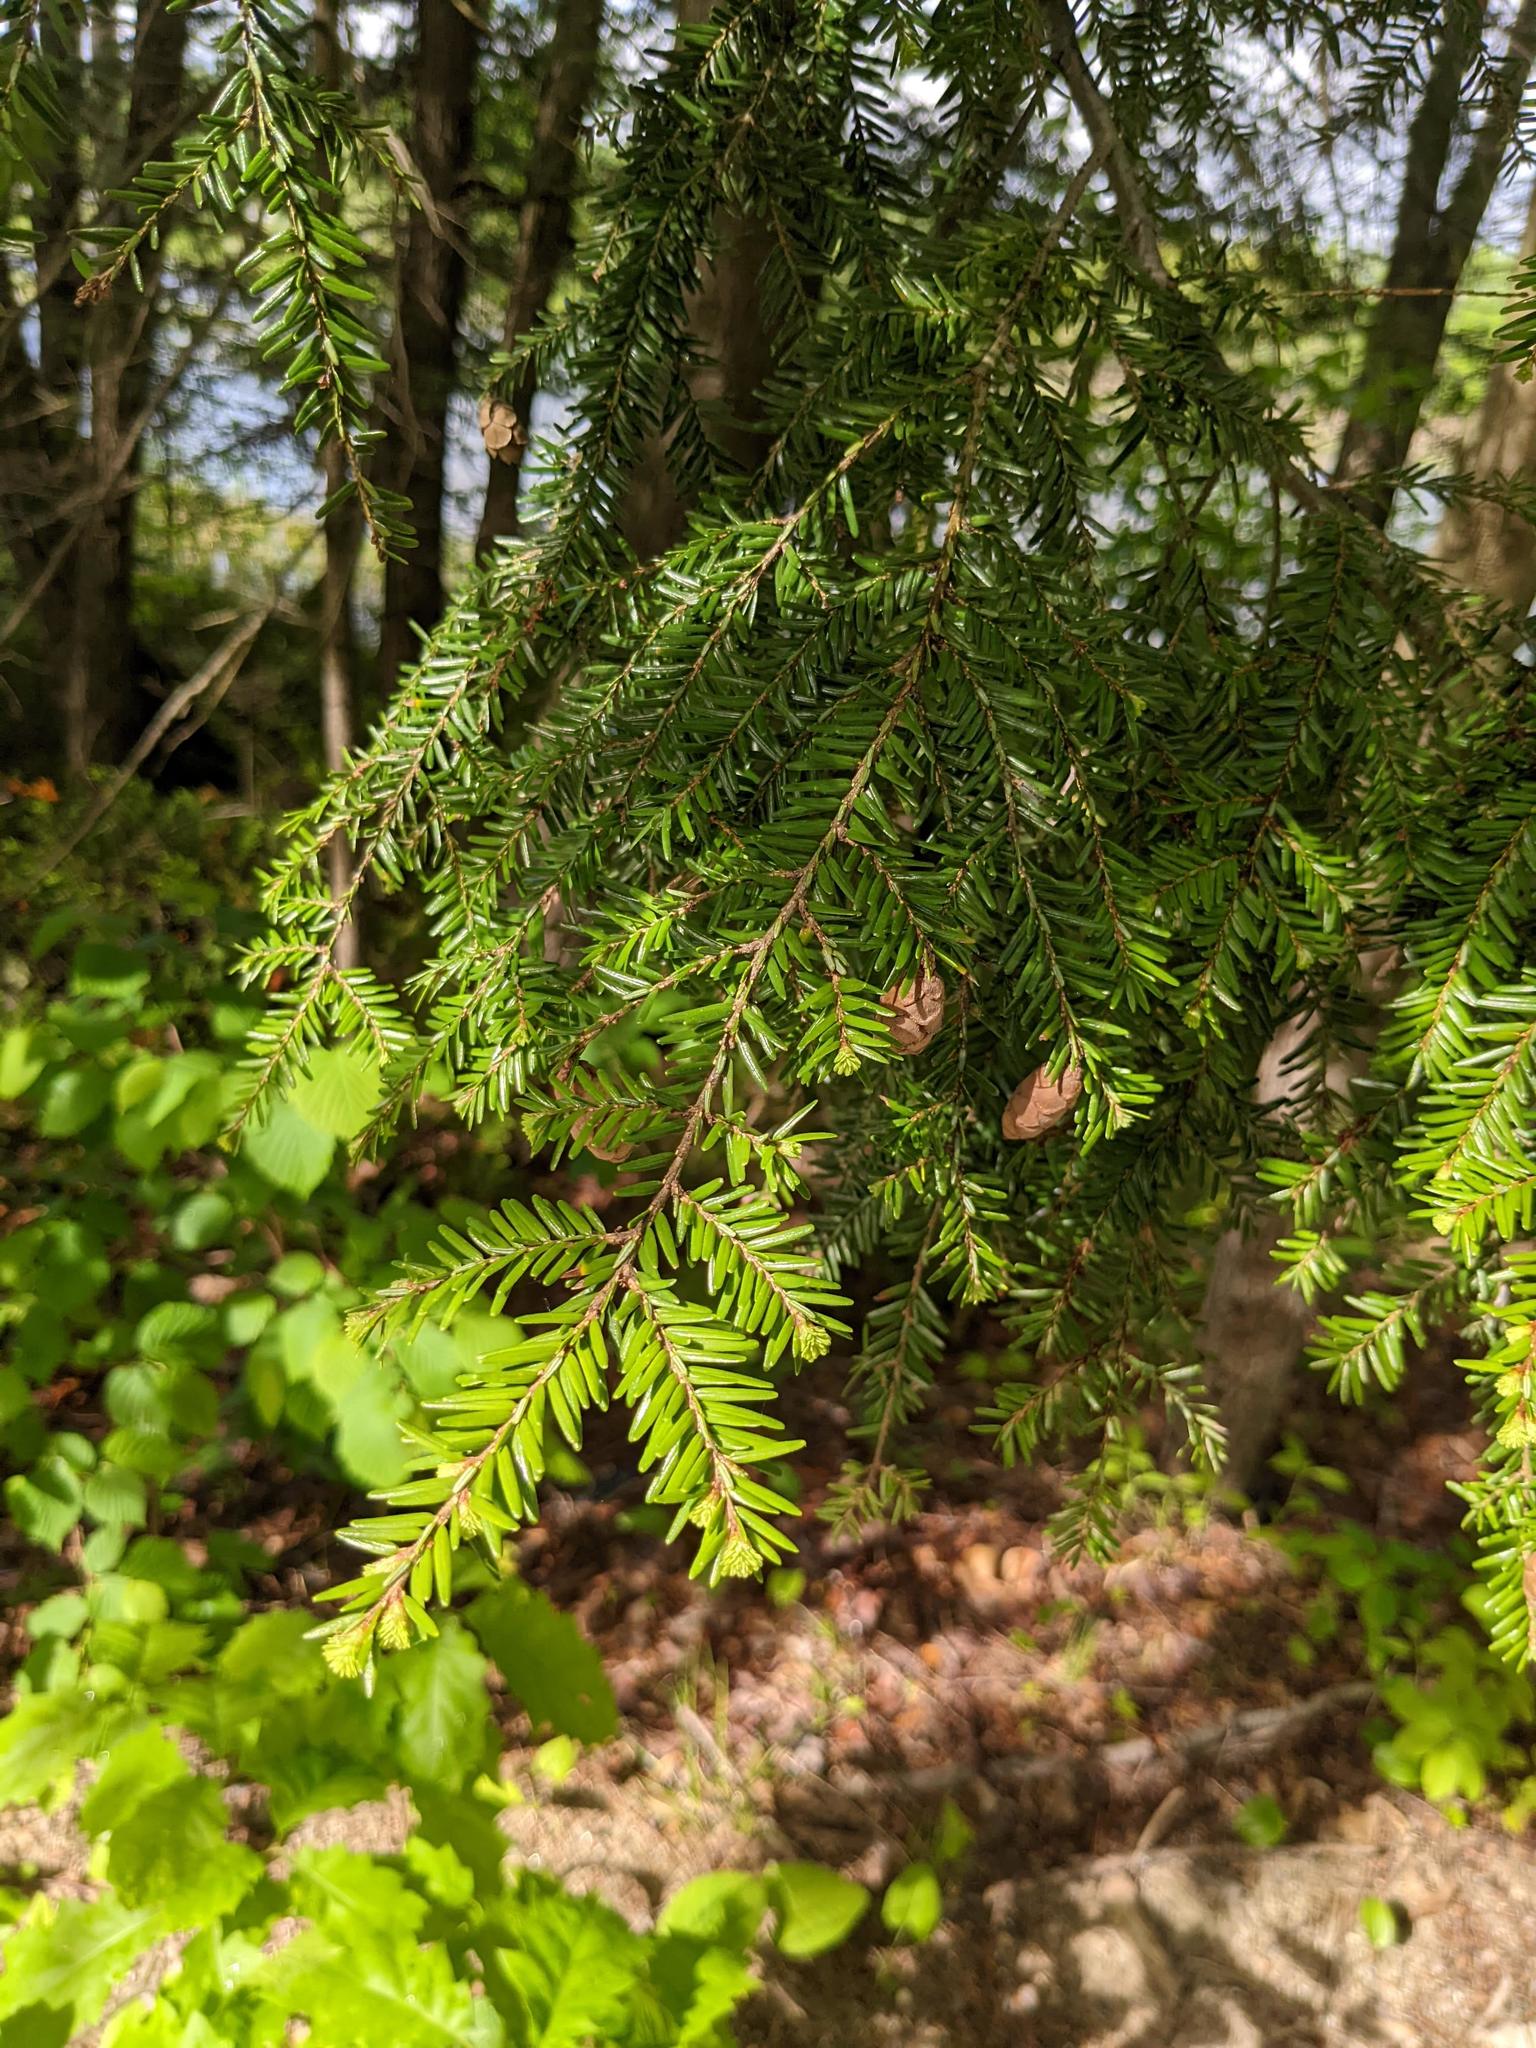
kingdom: Plantae
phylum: Tracheophyta
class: Pinopsida
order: Pinales
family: Pinaceae
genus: Tsuga
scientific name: Tsuga canadensis
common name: Eastern hemlock
